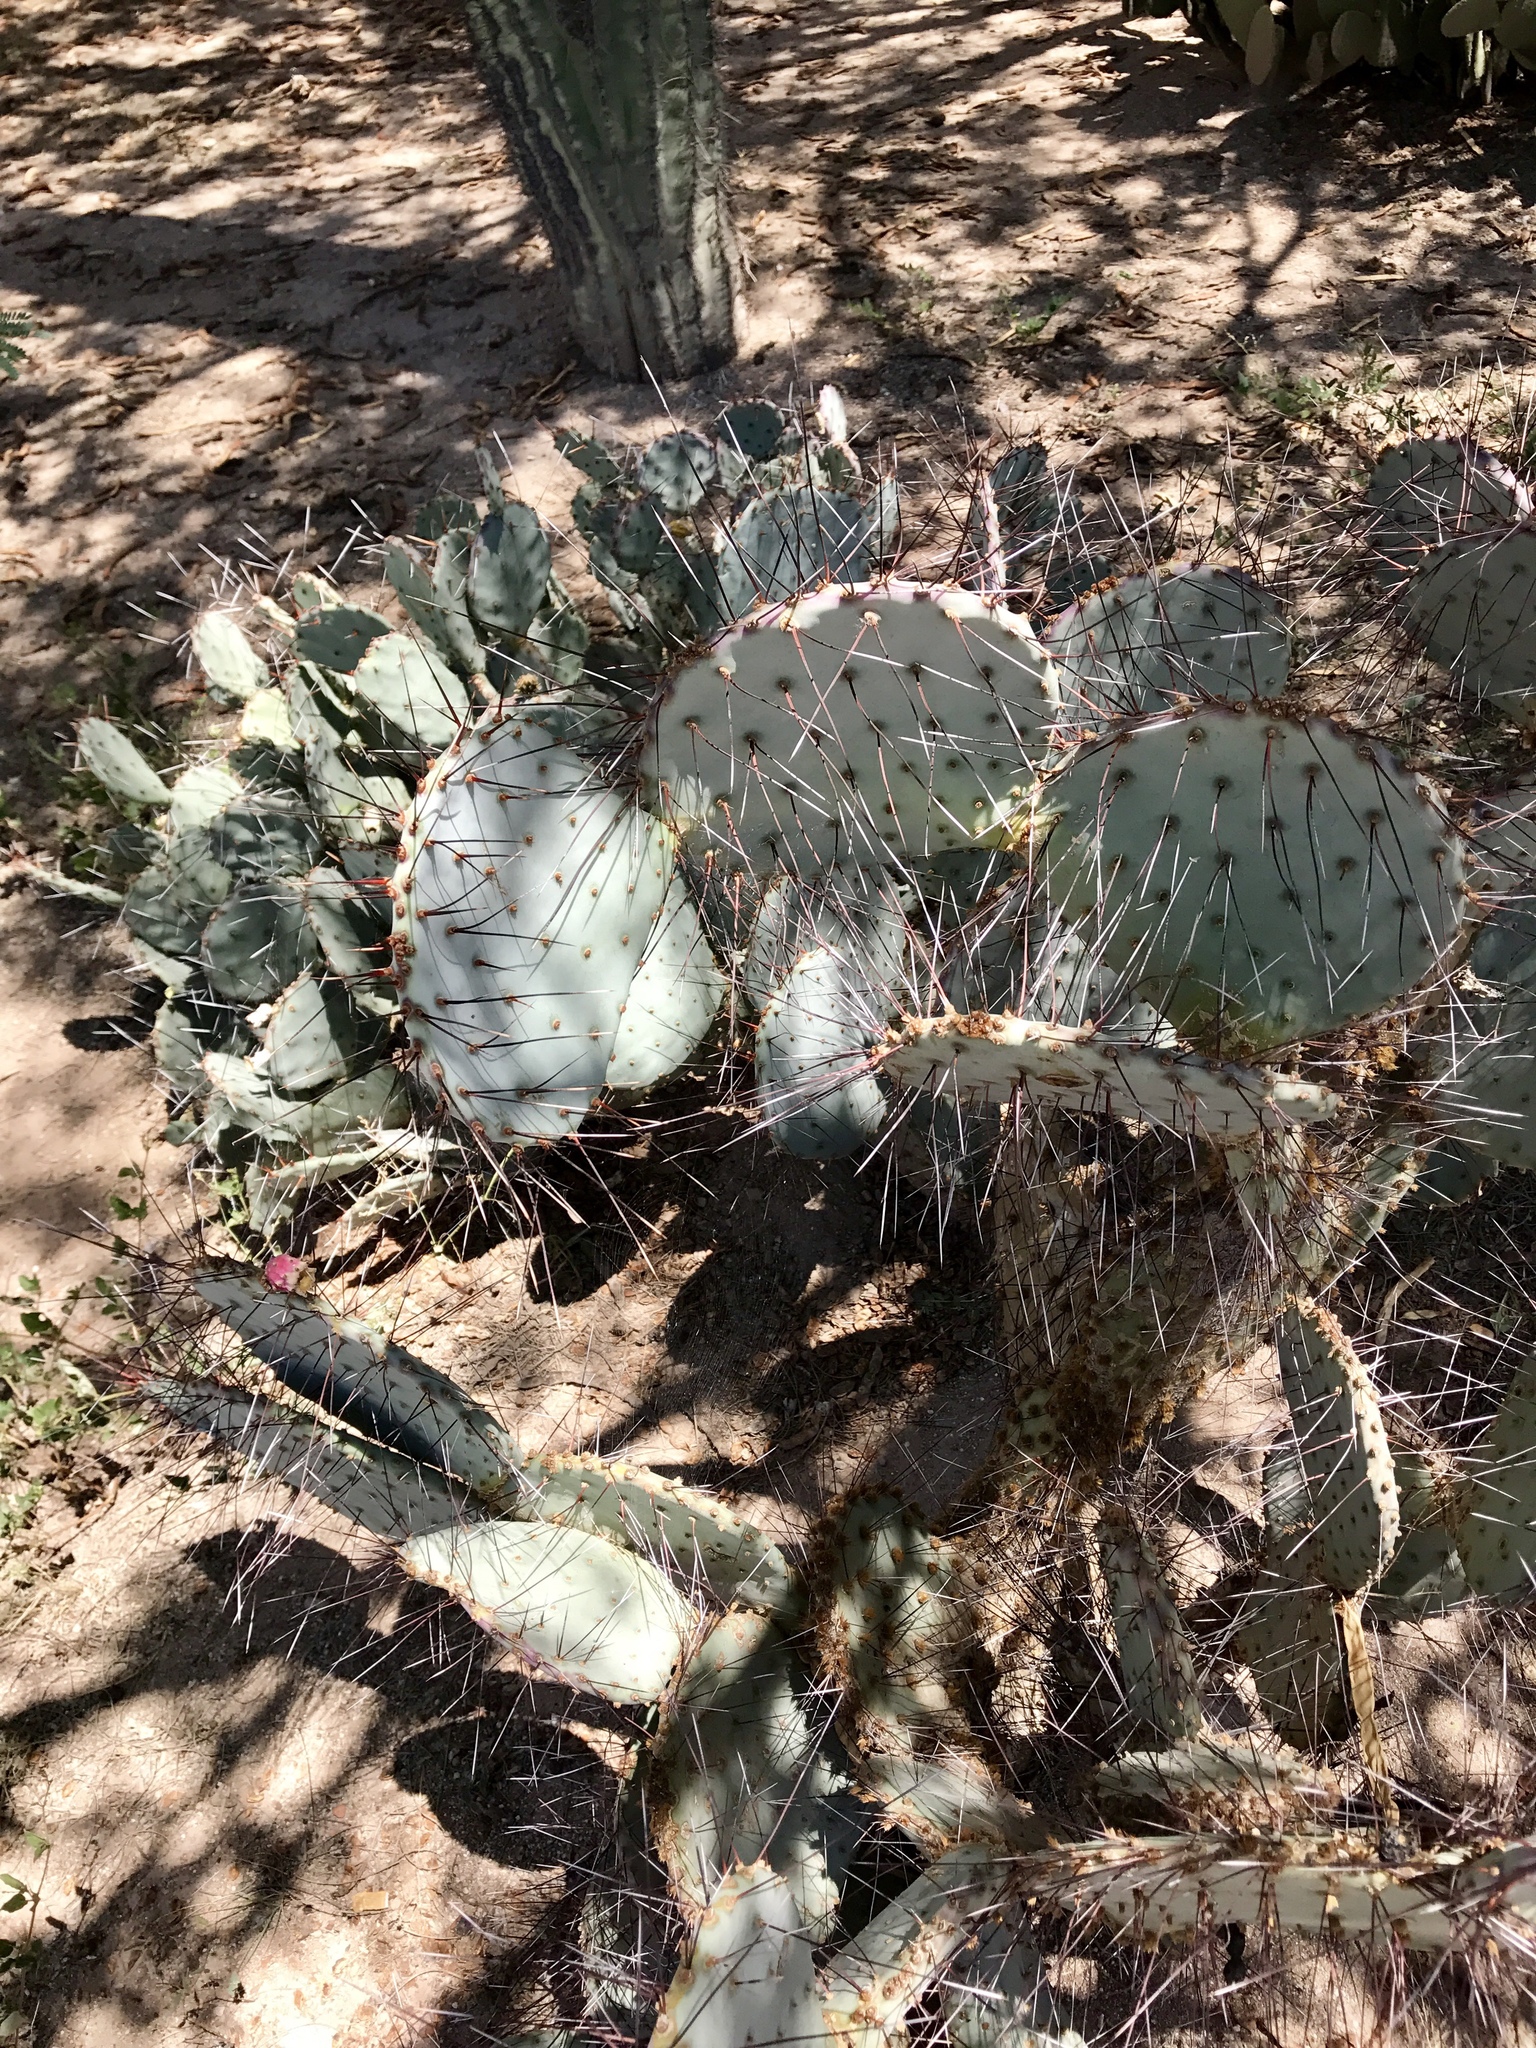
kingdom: Plantae
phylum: Tracheophyta
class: Magnoliopsida
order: Caryophyllales
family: Cactaceae
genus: Opuntia
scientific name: Opuntia macrocentra
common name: Purple prickly-pear
